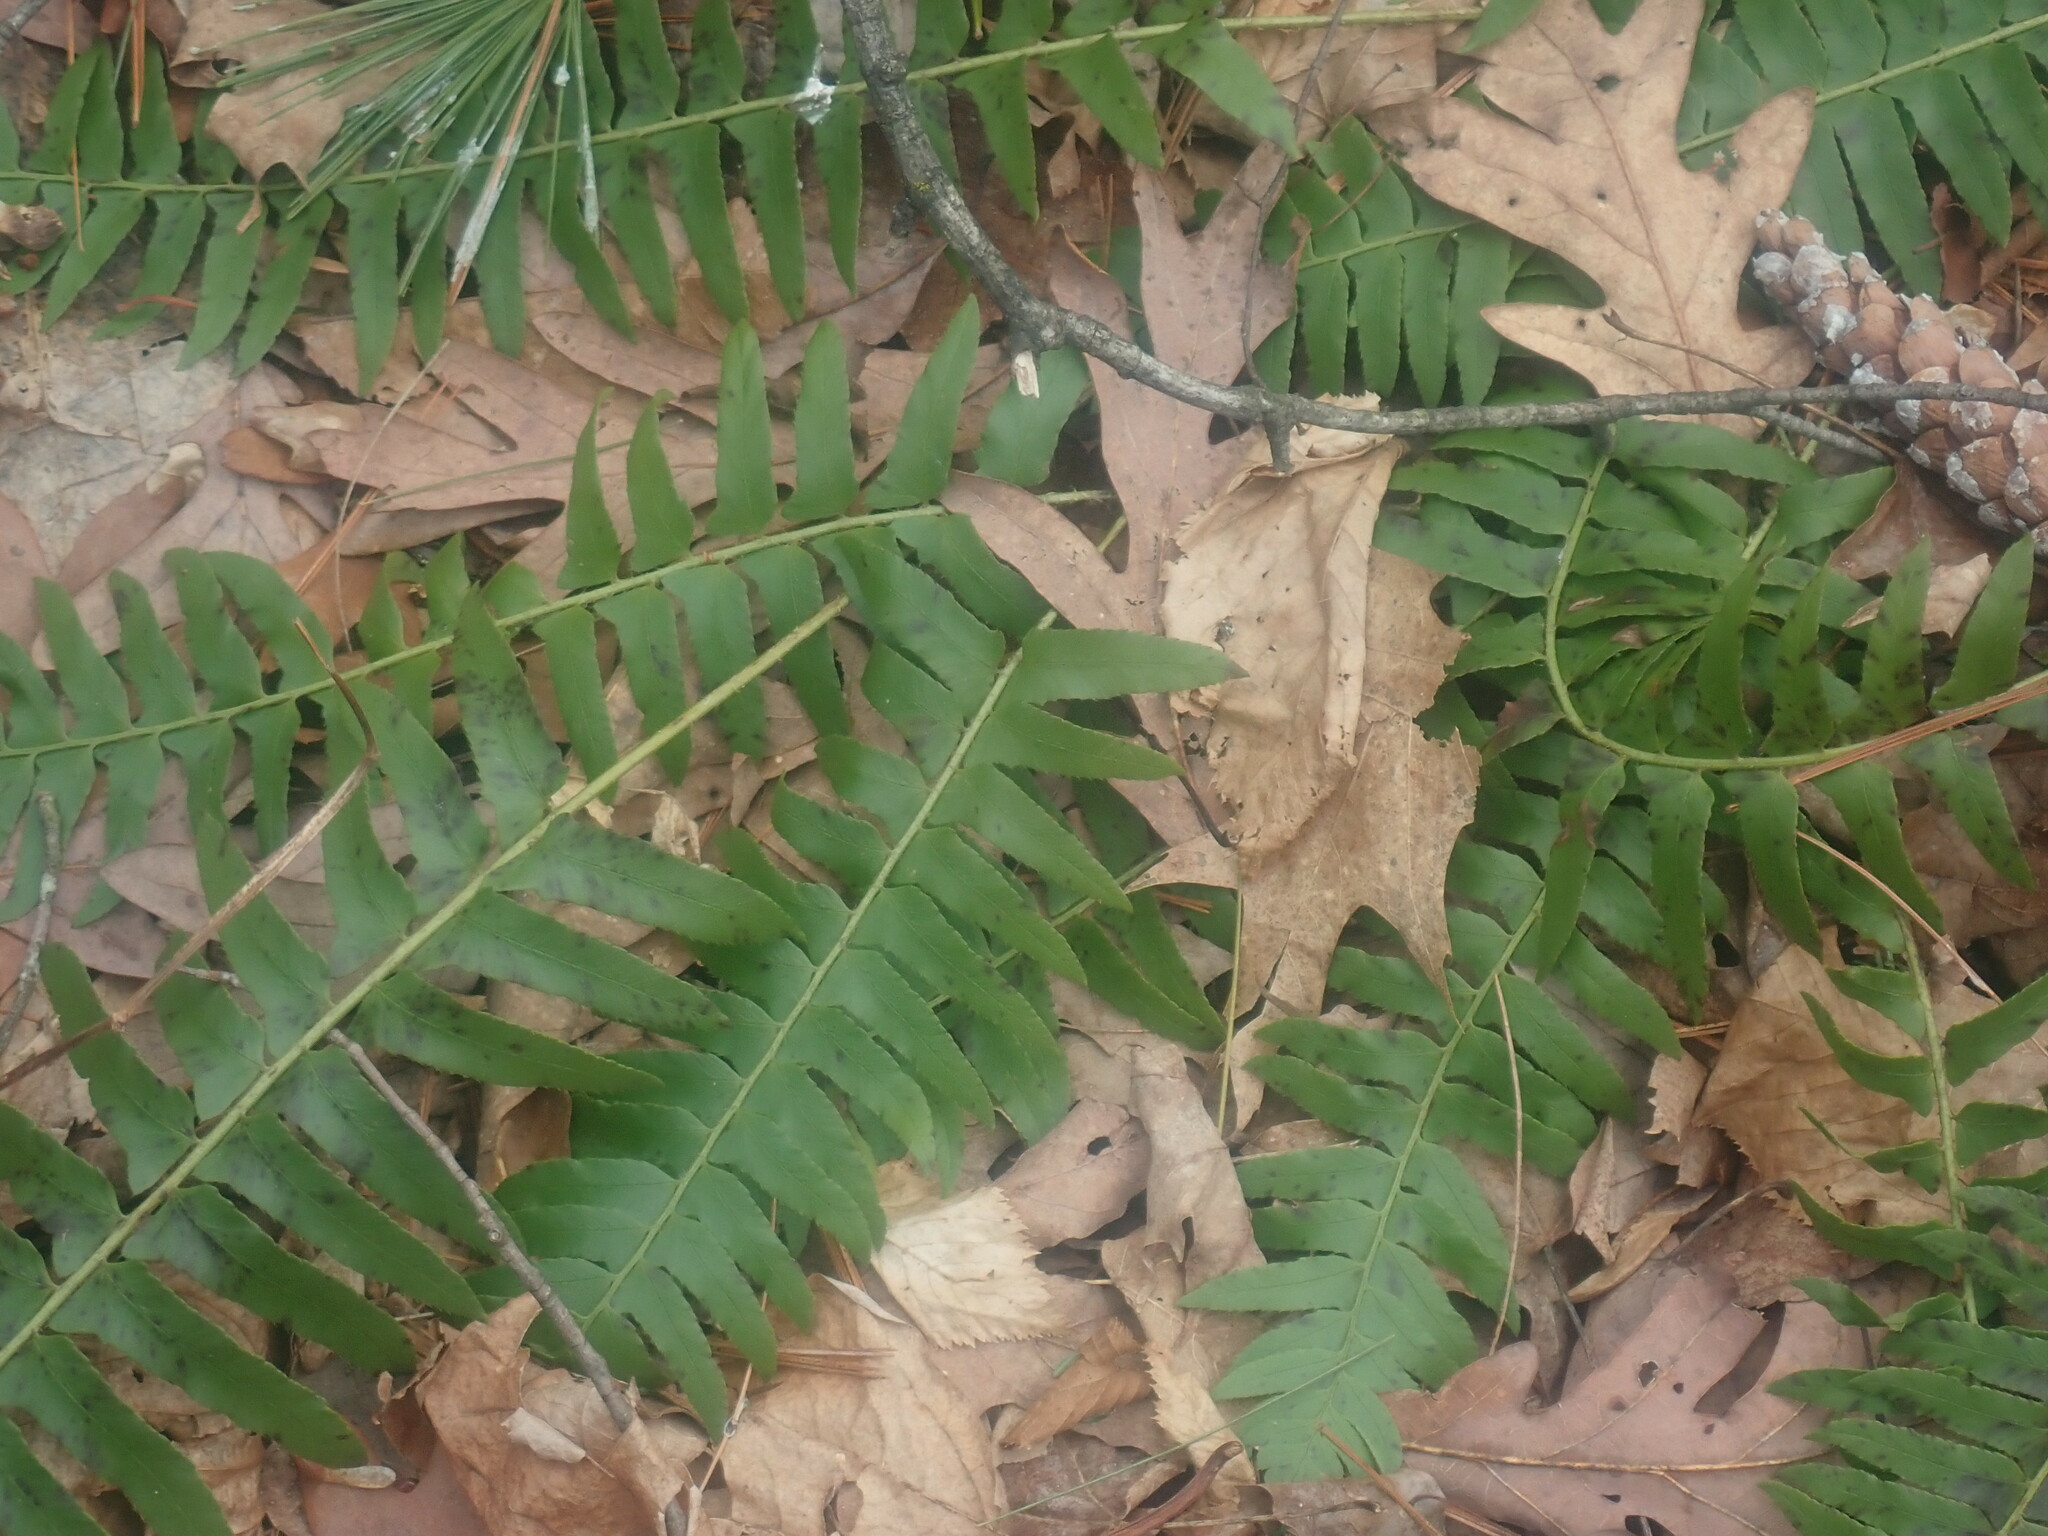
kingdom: Plantae
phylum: Tracheophyta
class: Polypodiopsida
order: Polypodiales
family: Dryopteridaceae
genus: Polystichum
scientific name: Polystichum acrostichoides
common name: Christmas fern
